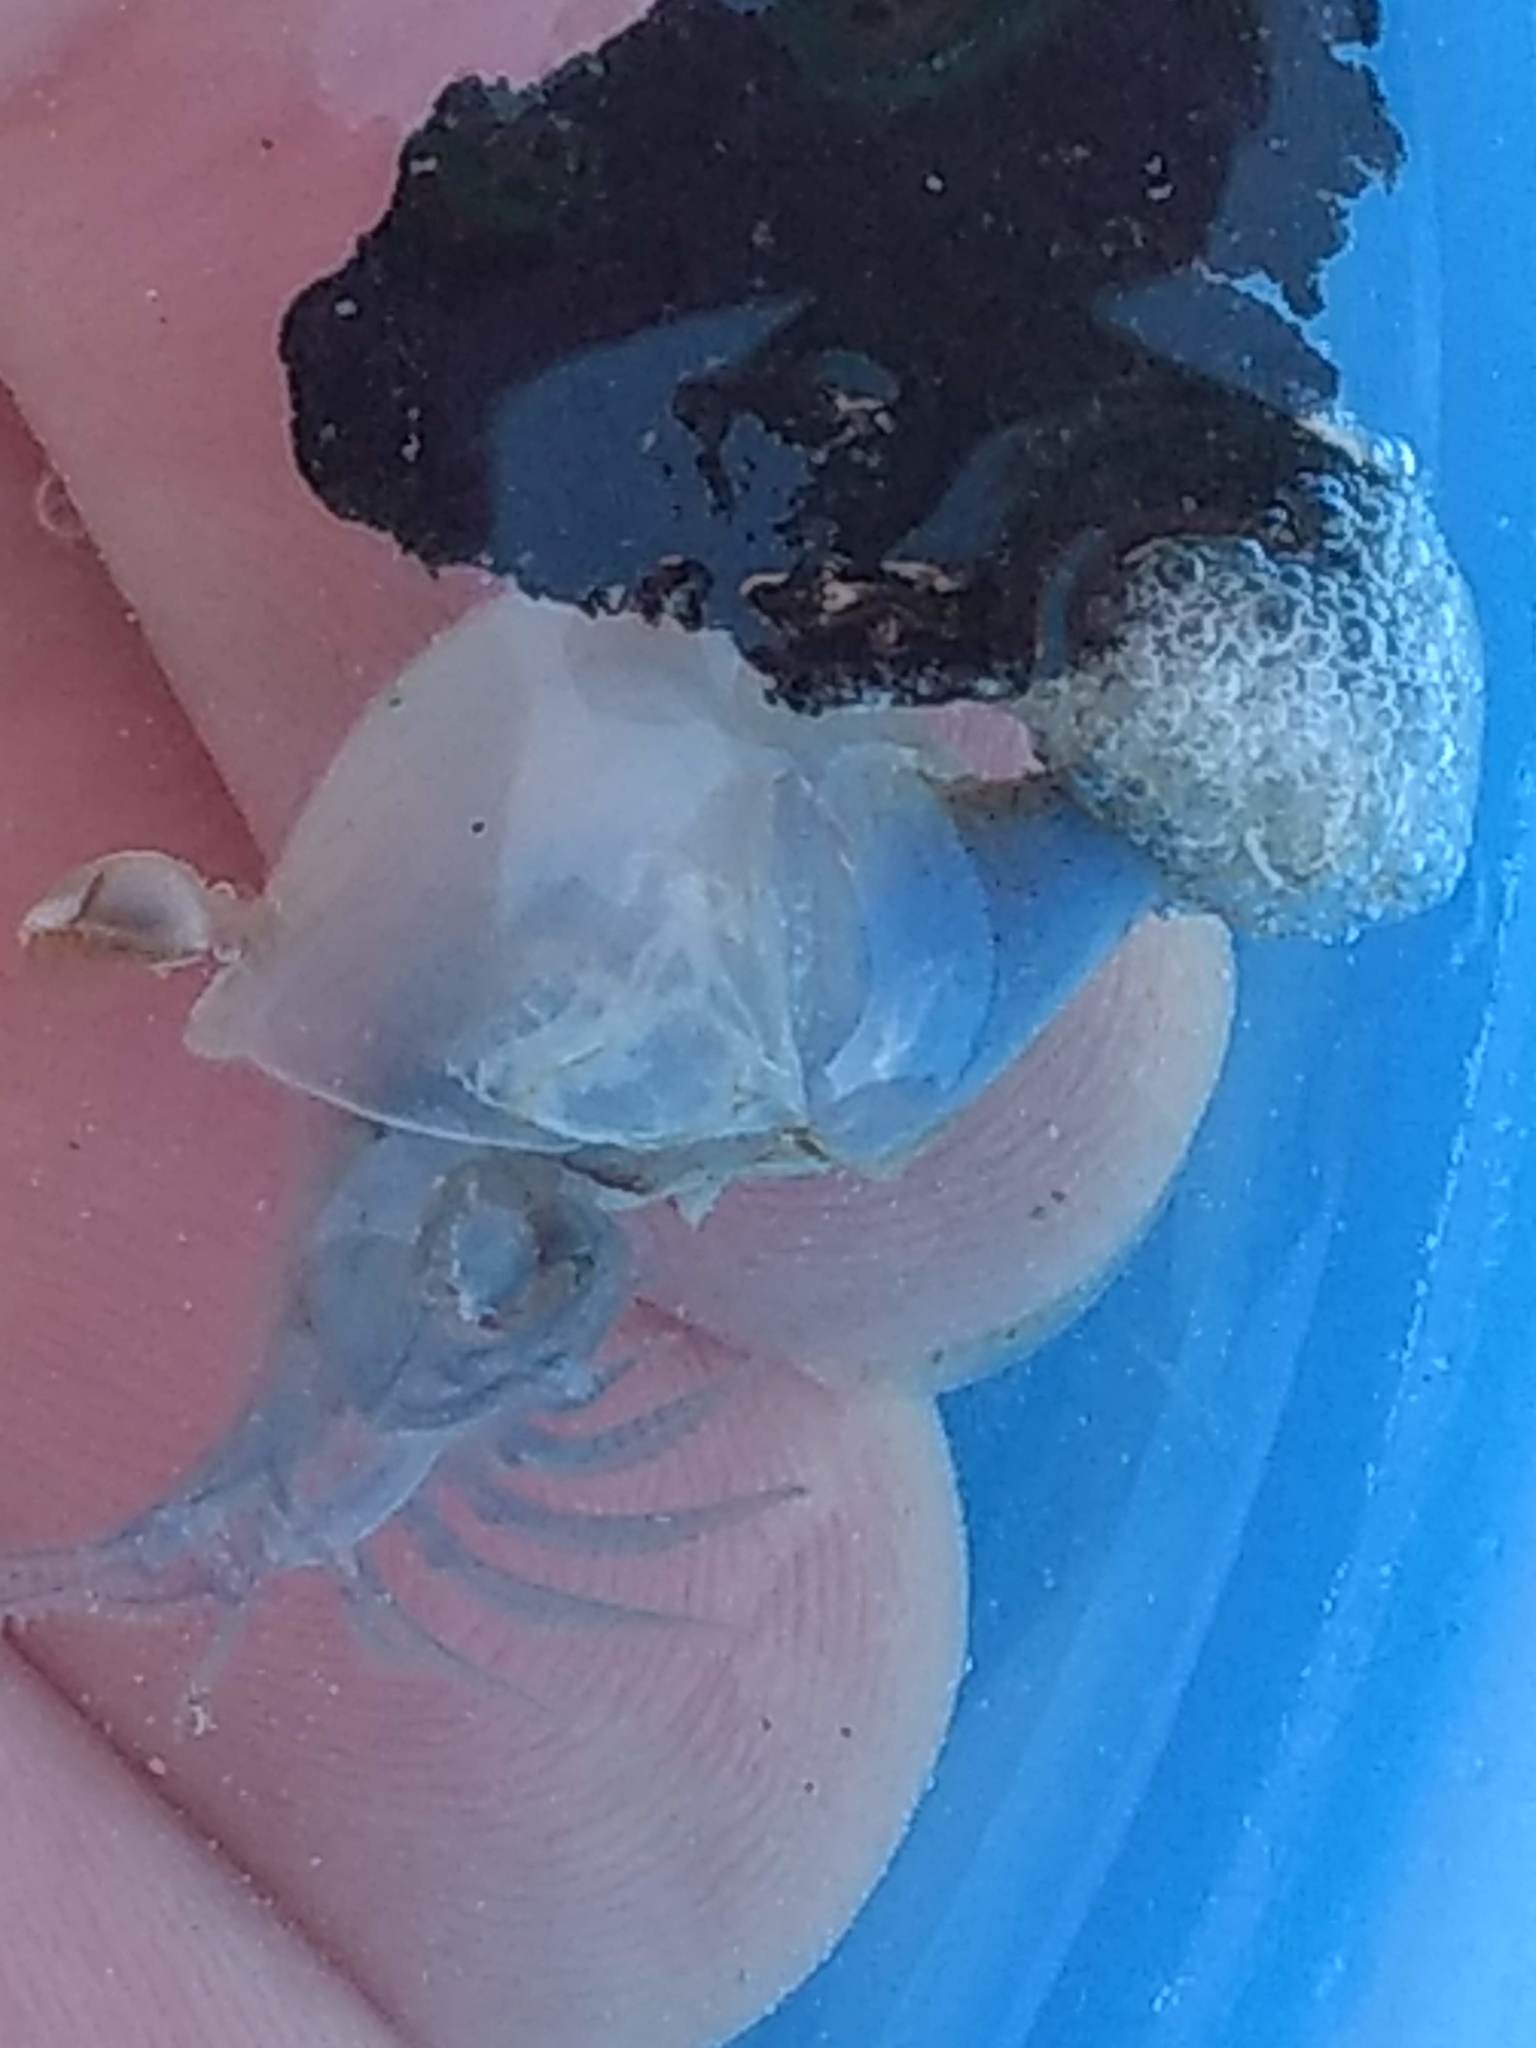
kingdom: Animalia
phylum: Arthropoda
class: Maxillopoda
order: Pedunculata
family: Lepadidae
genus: Dosima
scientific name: Dosima fascicularis
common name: Buoy barnacle
